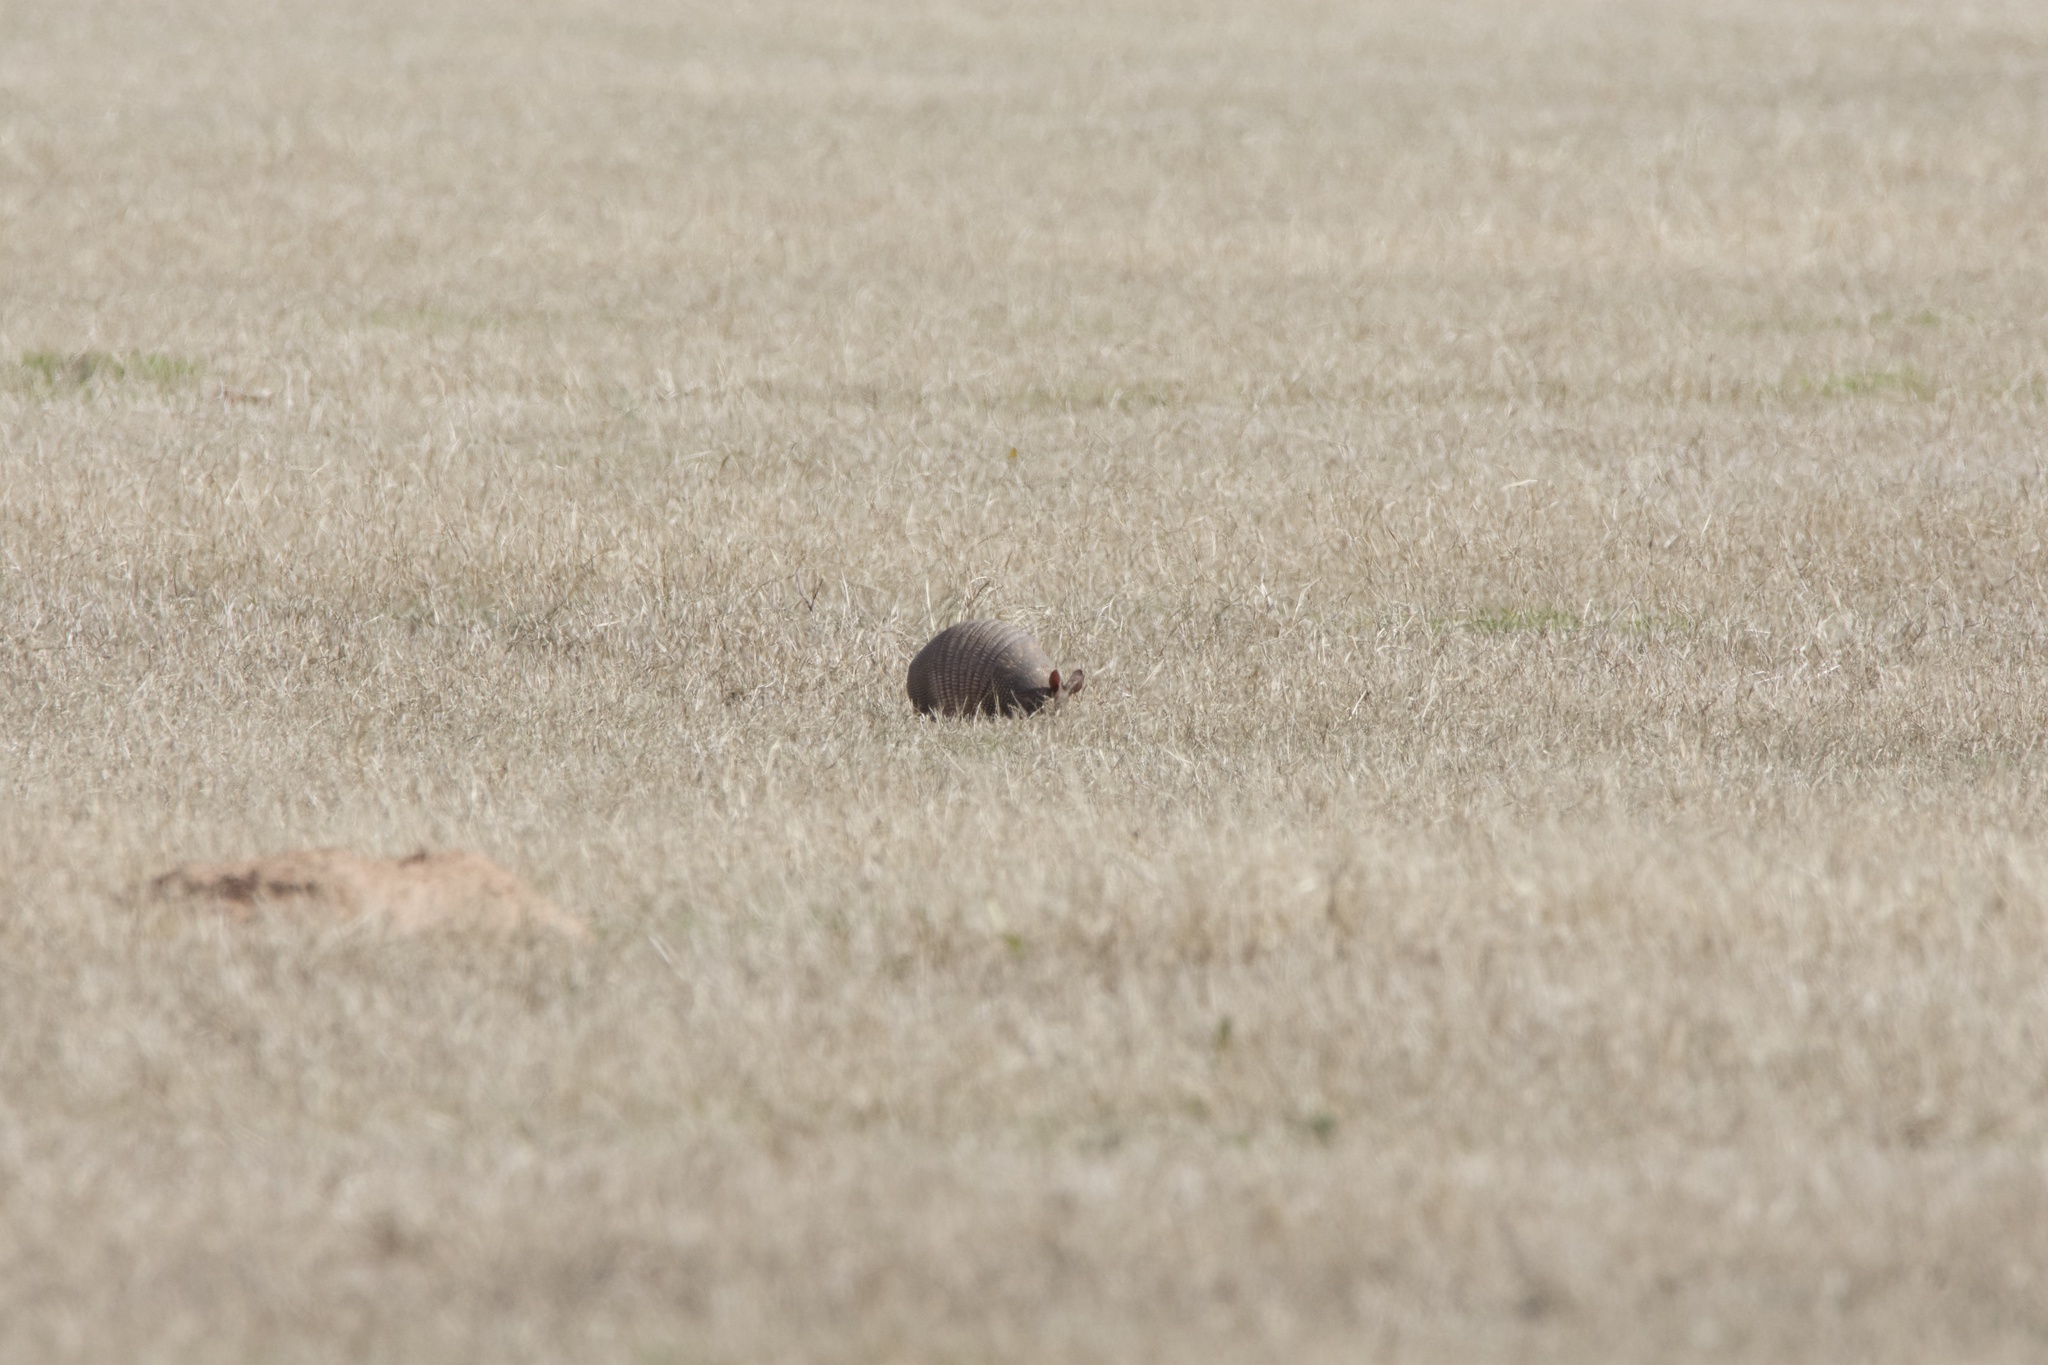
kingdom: Animalia
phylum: Chordata
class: Mammalia
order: Cingulata
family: Dasypodidae
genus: Dasypus
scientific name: Dasypus novemcinctus
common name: Nine-banded armadillo
